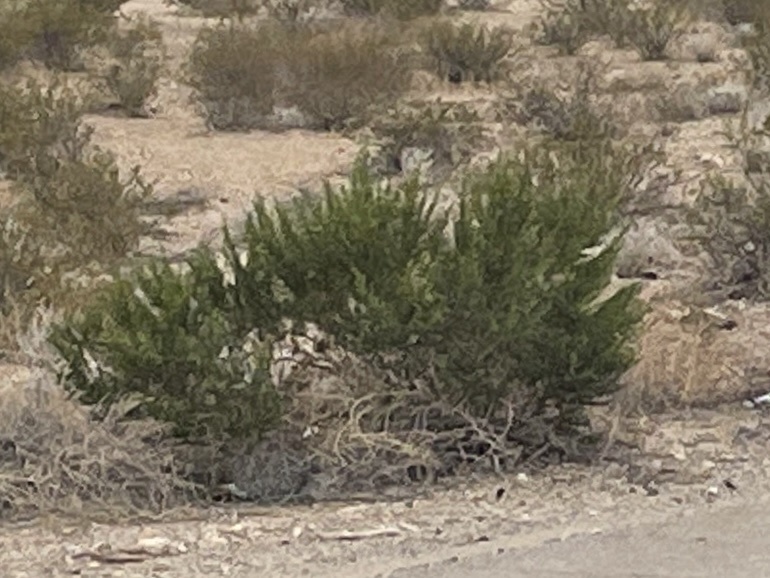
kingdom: Plantae
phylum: Tracheophyta
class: Magnoliopsida
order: Zygophyllales
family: Zygophyllaceae
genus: Larrea
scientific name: Larrea tridentata
